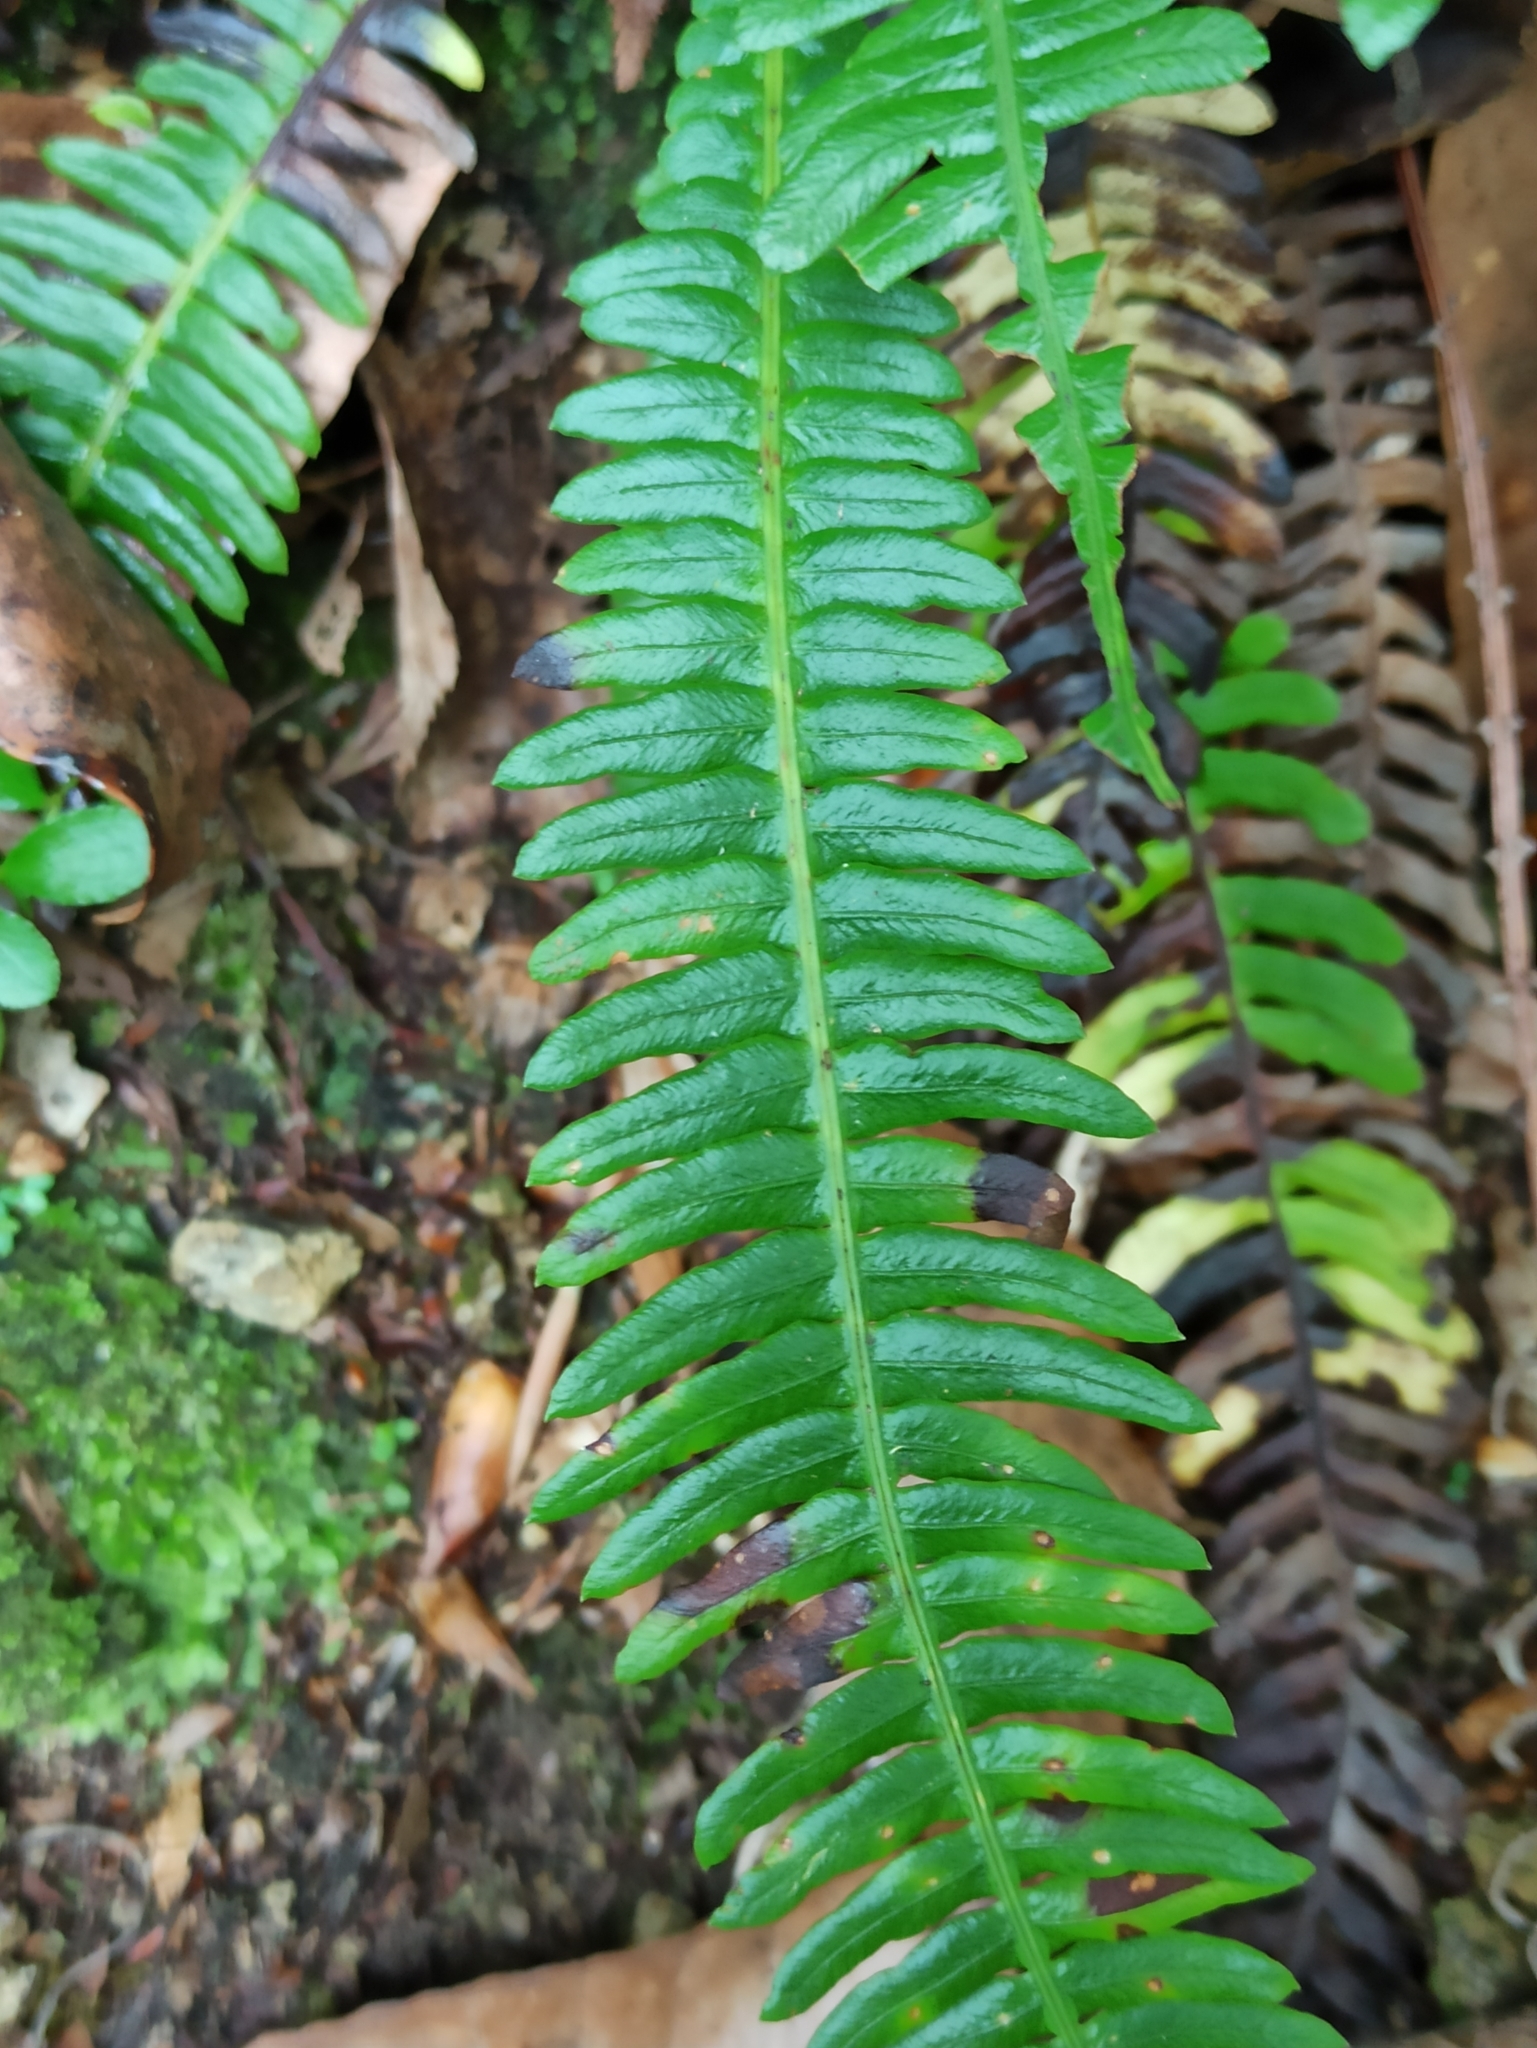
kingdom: Plantae
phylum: Tracheophyta
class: Polypodiopsida
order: Polypodiales
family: Blechnaceae
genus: Struthiopteris
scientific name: Struthiopteris spicant
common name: Deer fern
